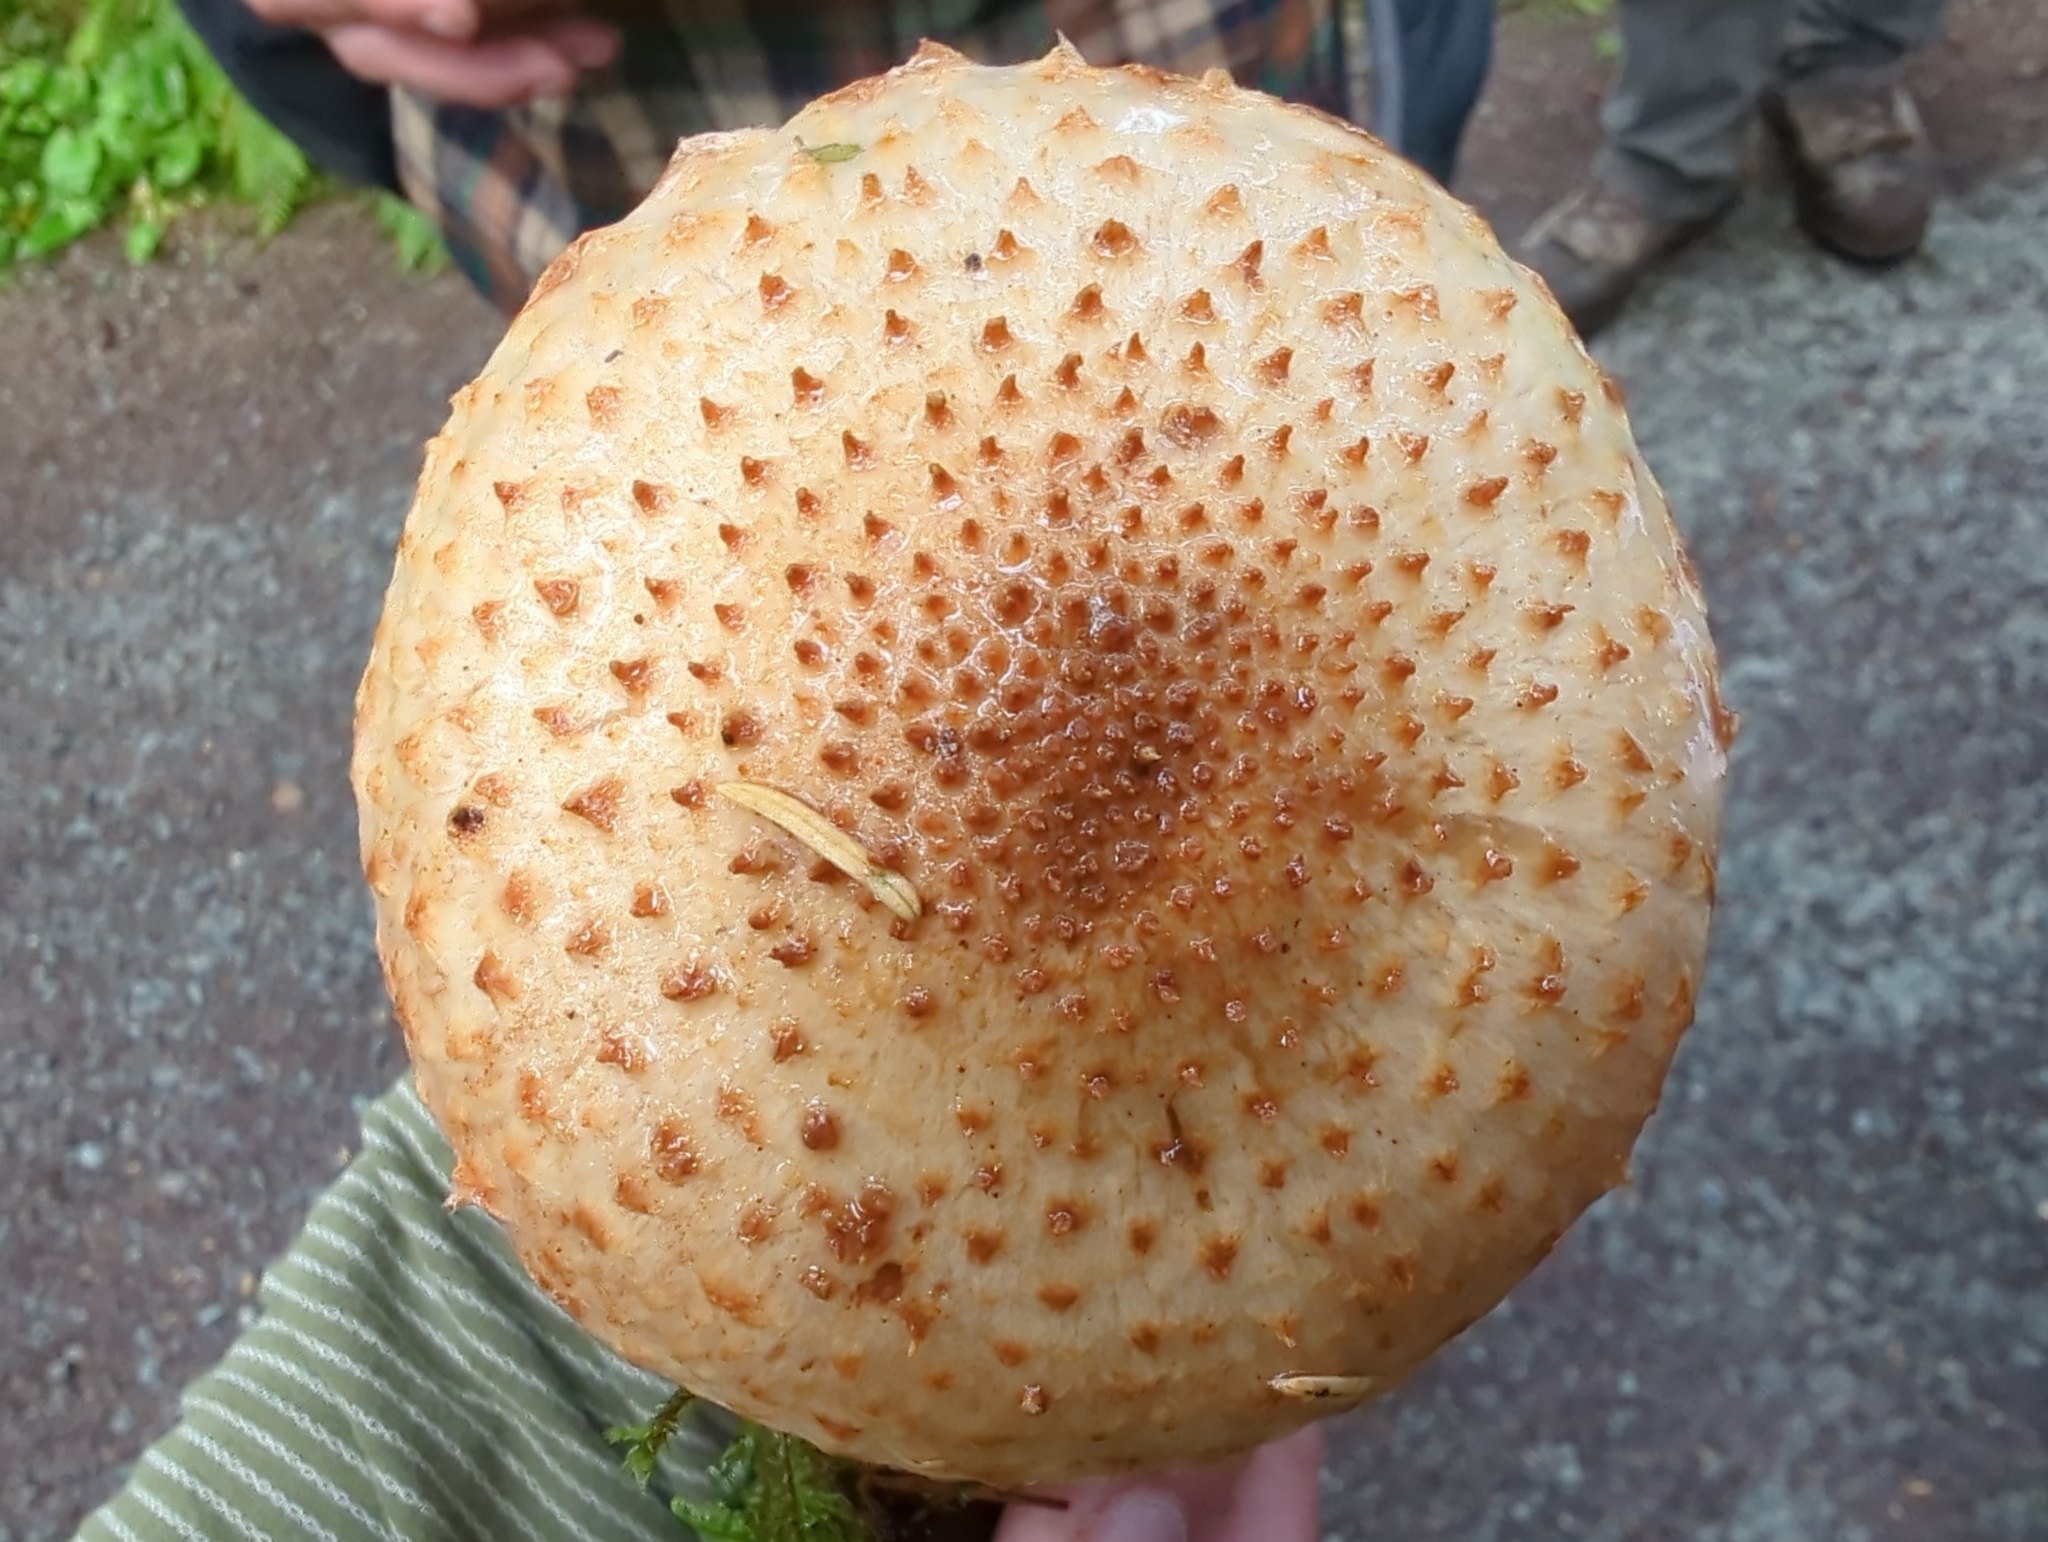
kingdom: Fungi
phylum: Basidiomycota
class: Agaricomycetes
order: Agaricales
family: Strophariaceae
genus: Pholiota
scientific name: Pholiota squarrosa
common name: Shaggy pholiota
